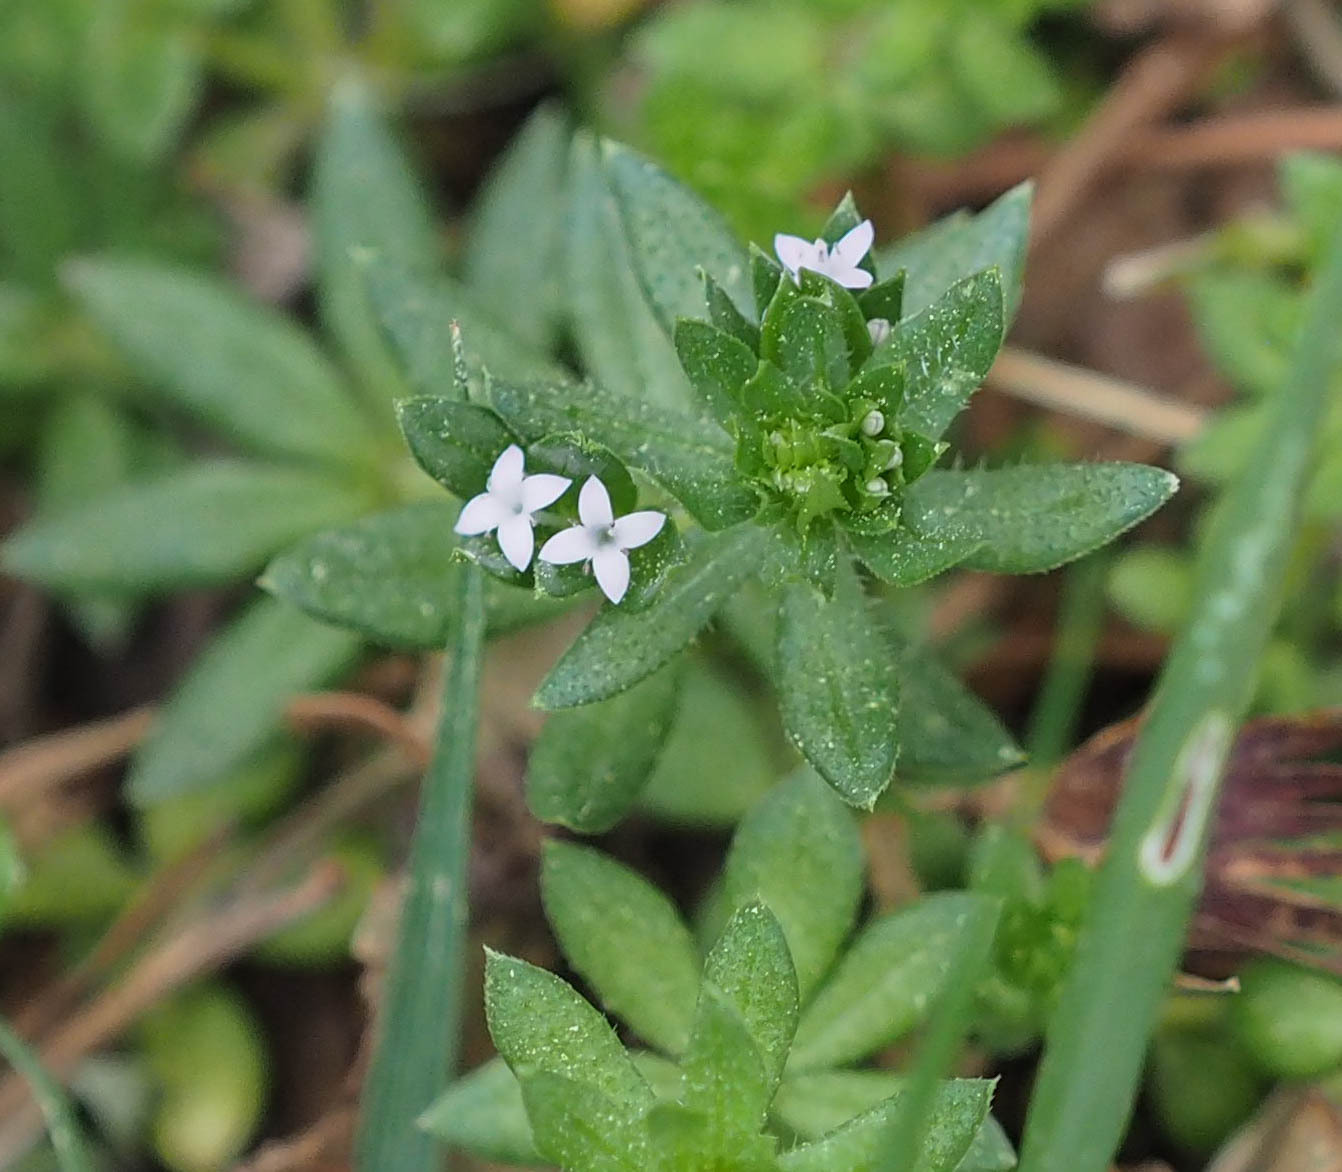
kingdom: Plantae
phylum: Tracheophyta
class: Magnoliopsida
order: Gentianales
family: Rubiaceae
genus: Sherardia
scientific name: Sherardia arvensis
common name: Field madder
